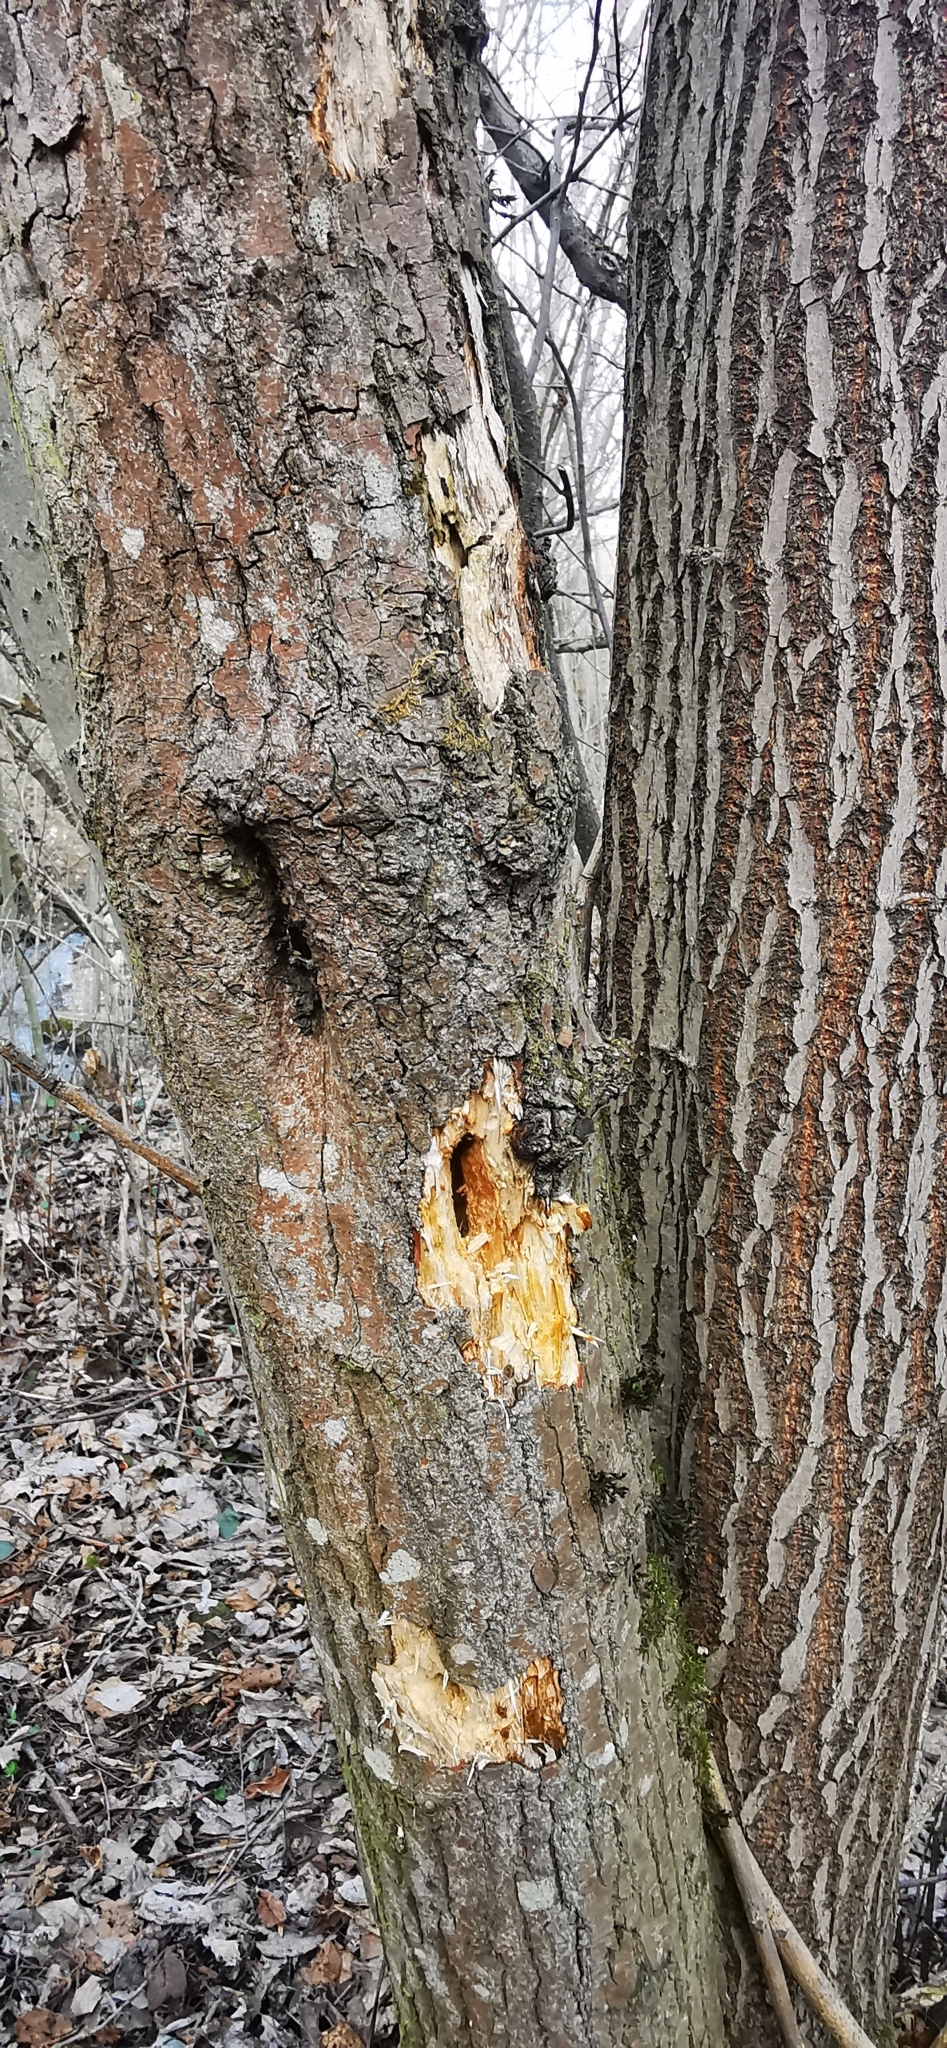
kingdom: Animalia
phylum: Chordata
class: Aves
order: Piciformes
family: Picidae
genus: Dryocopus
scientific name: Dryocopus martius
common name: Black woodpecker
